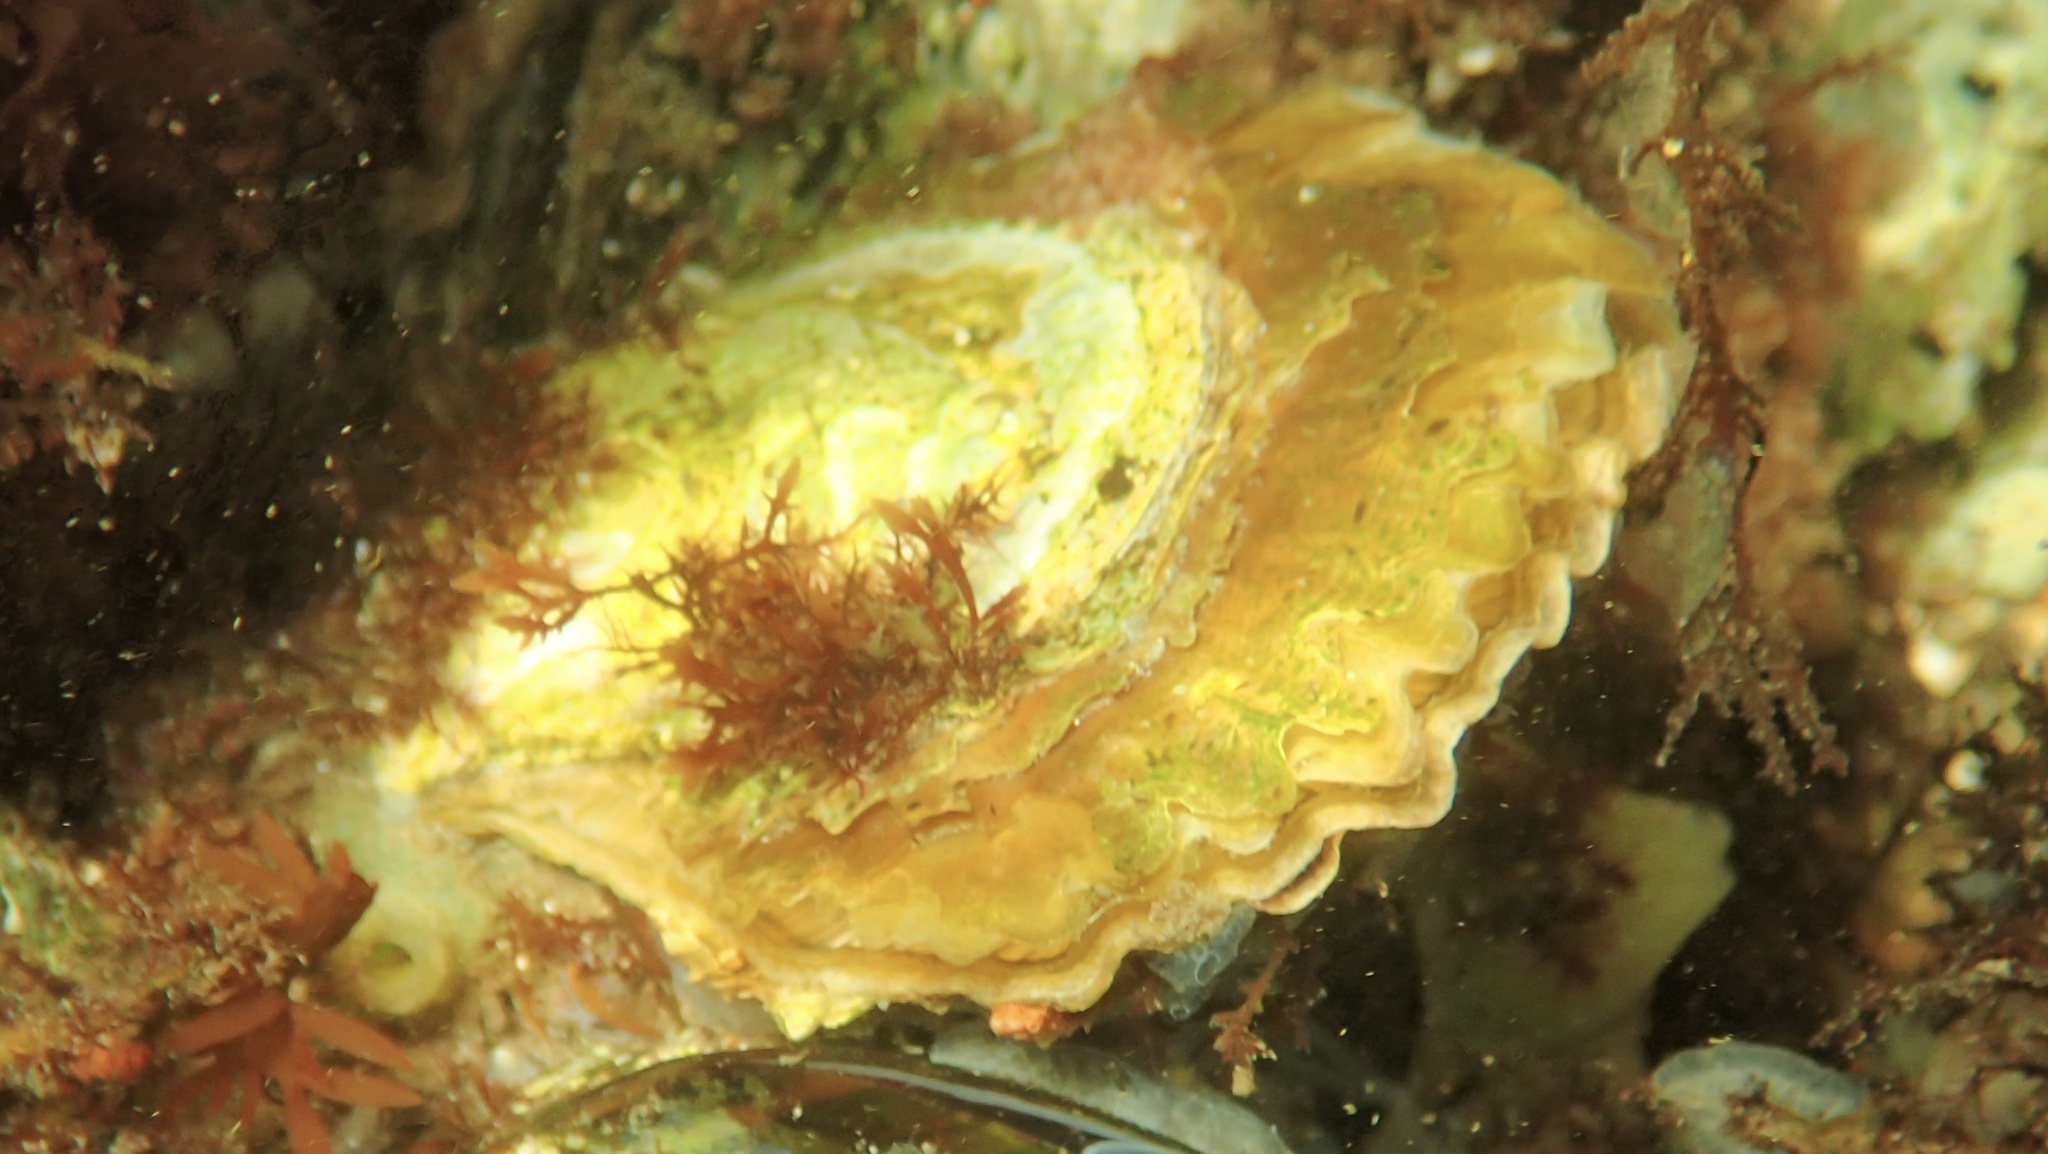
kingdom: Animalia
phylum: Mollusca
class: Bivalvia
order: Ostreida
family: Ostreidae
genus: Ostrea
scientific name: Ostrea edulis
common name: Flat oyster
